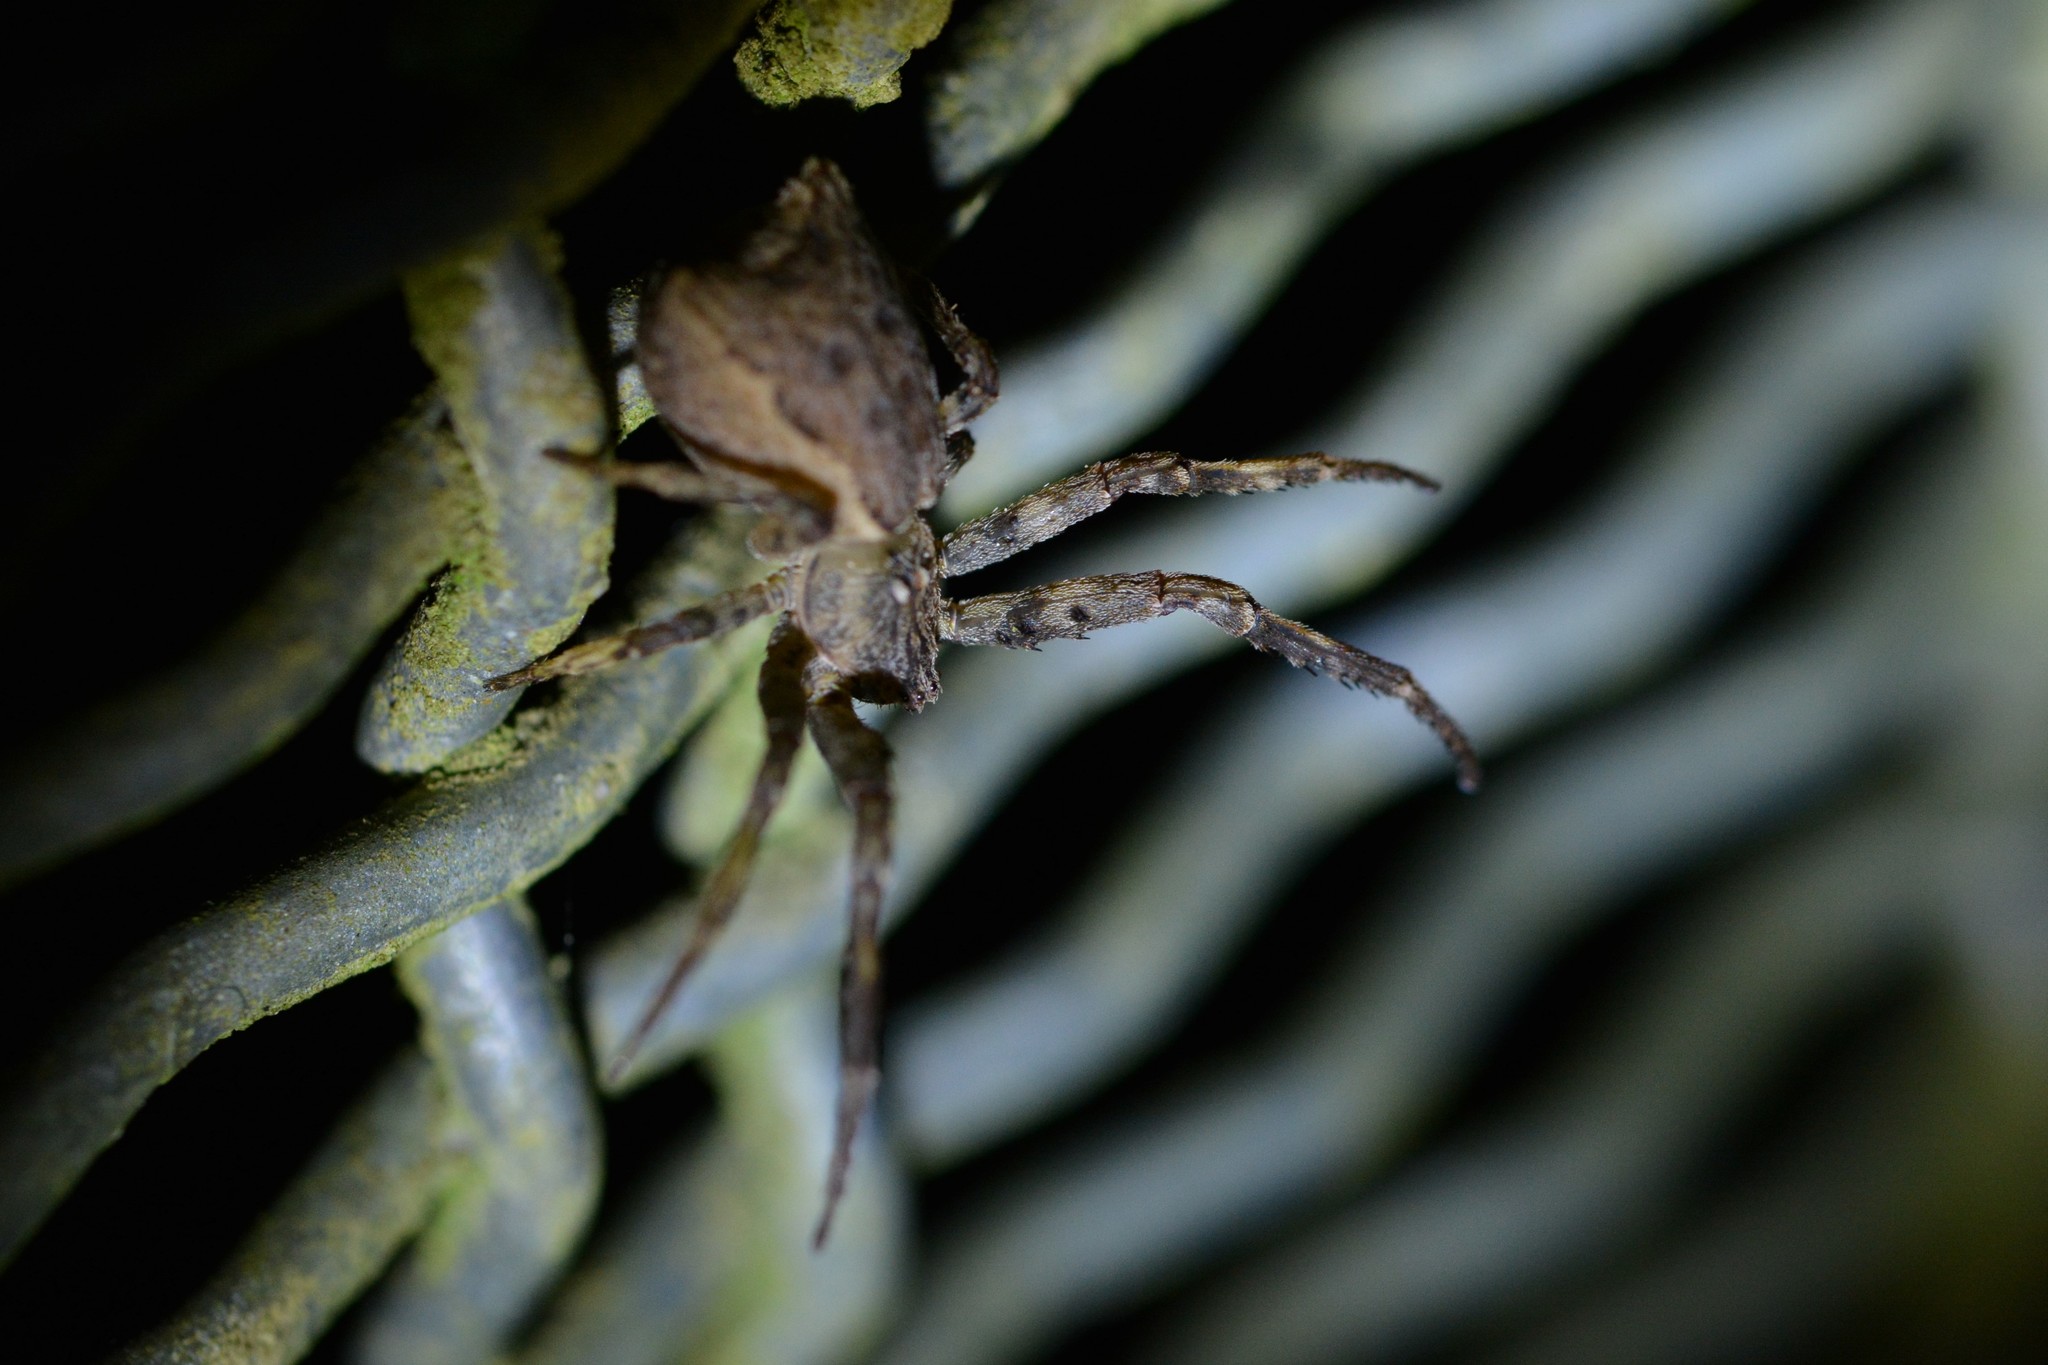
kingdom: Animalia
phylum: Arthropoda
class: Arachnida
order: Araneae
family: Thomisidae
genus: Sidymella
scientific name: Sidymella angulata
